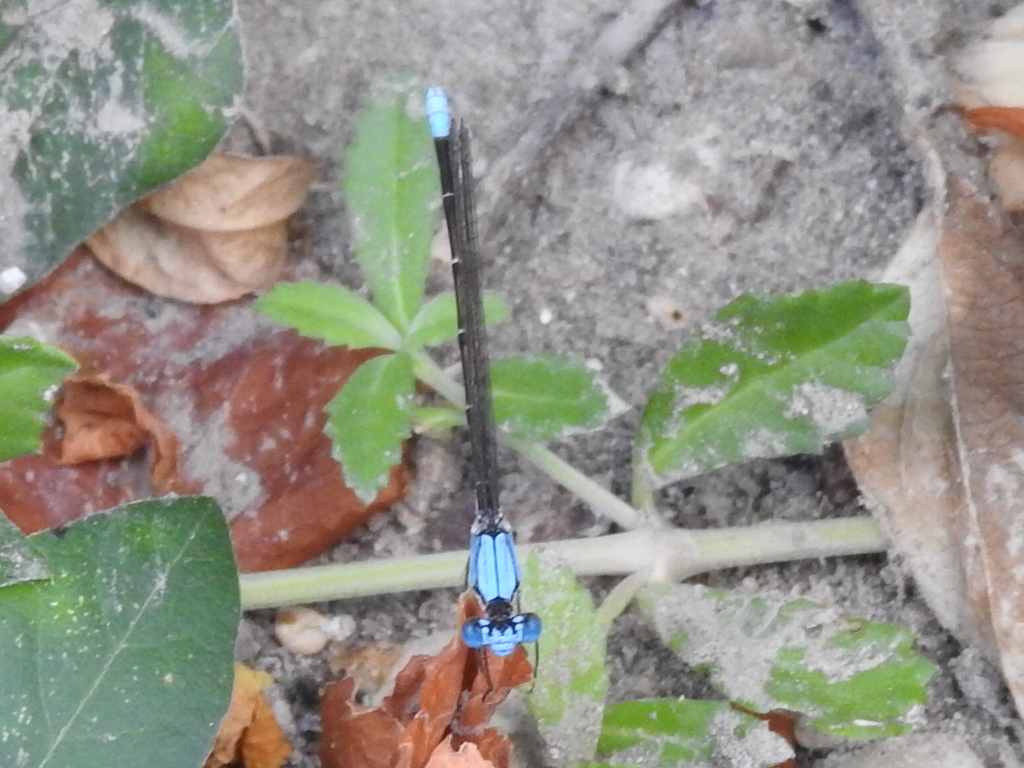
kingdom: Animalia
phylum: Arthropoda
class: Insecta
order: Odonata
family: Coenagrionidae
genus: Argia
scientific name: Argia apicalis
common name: Blue-fronted dancer
